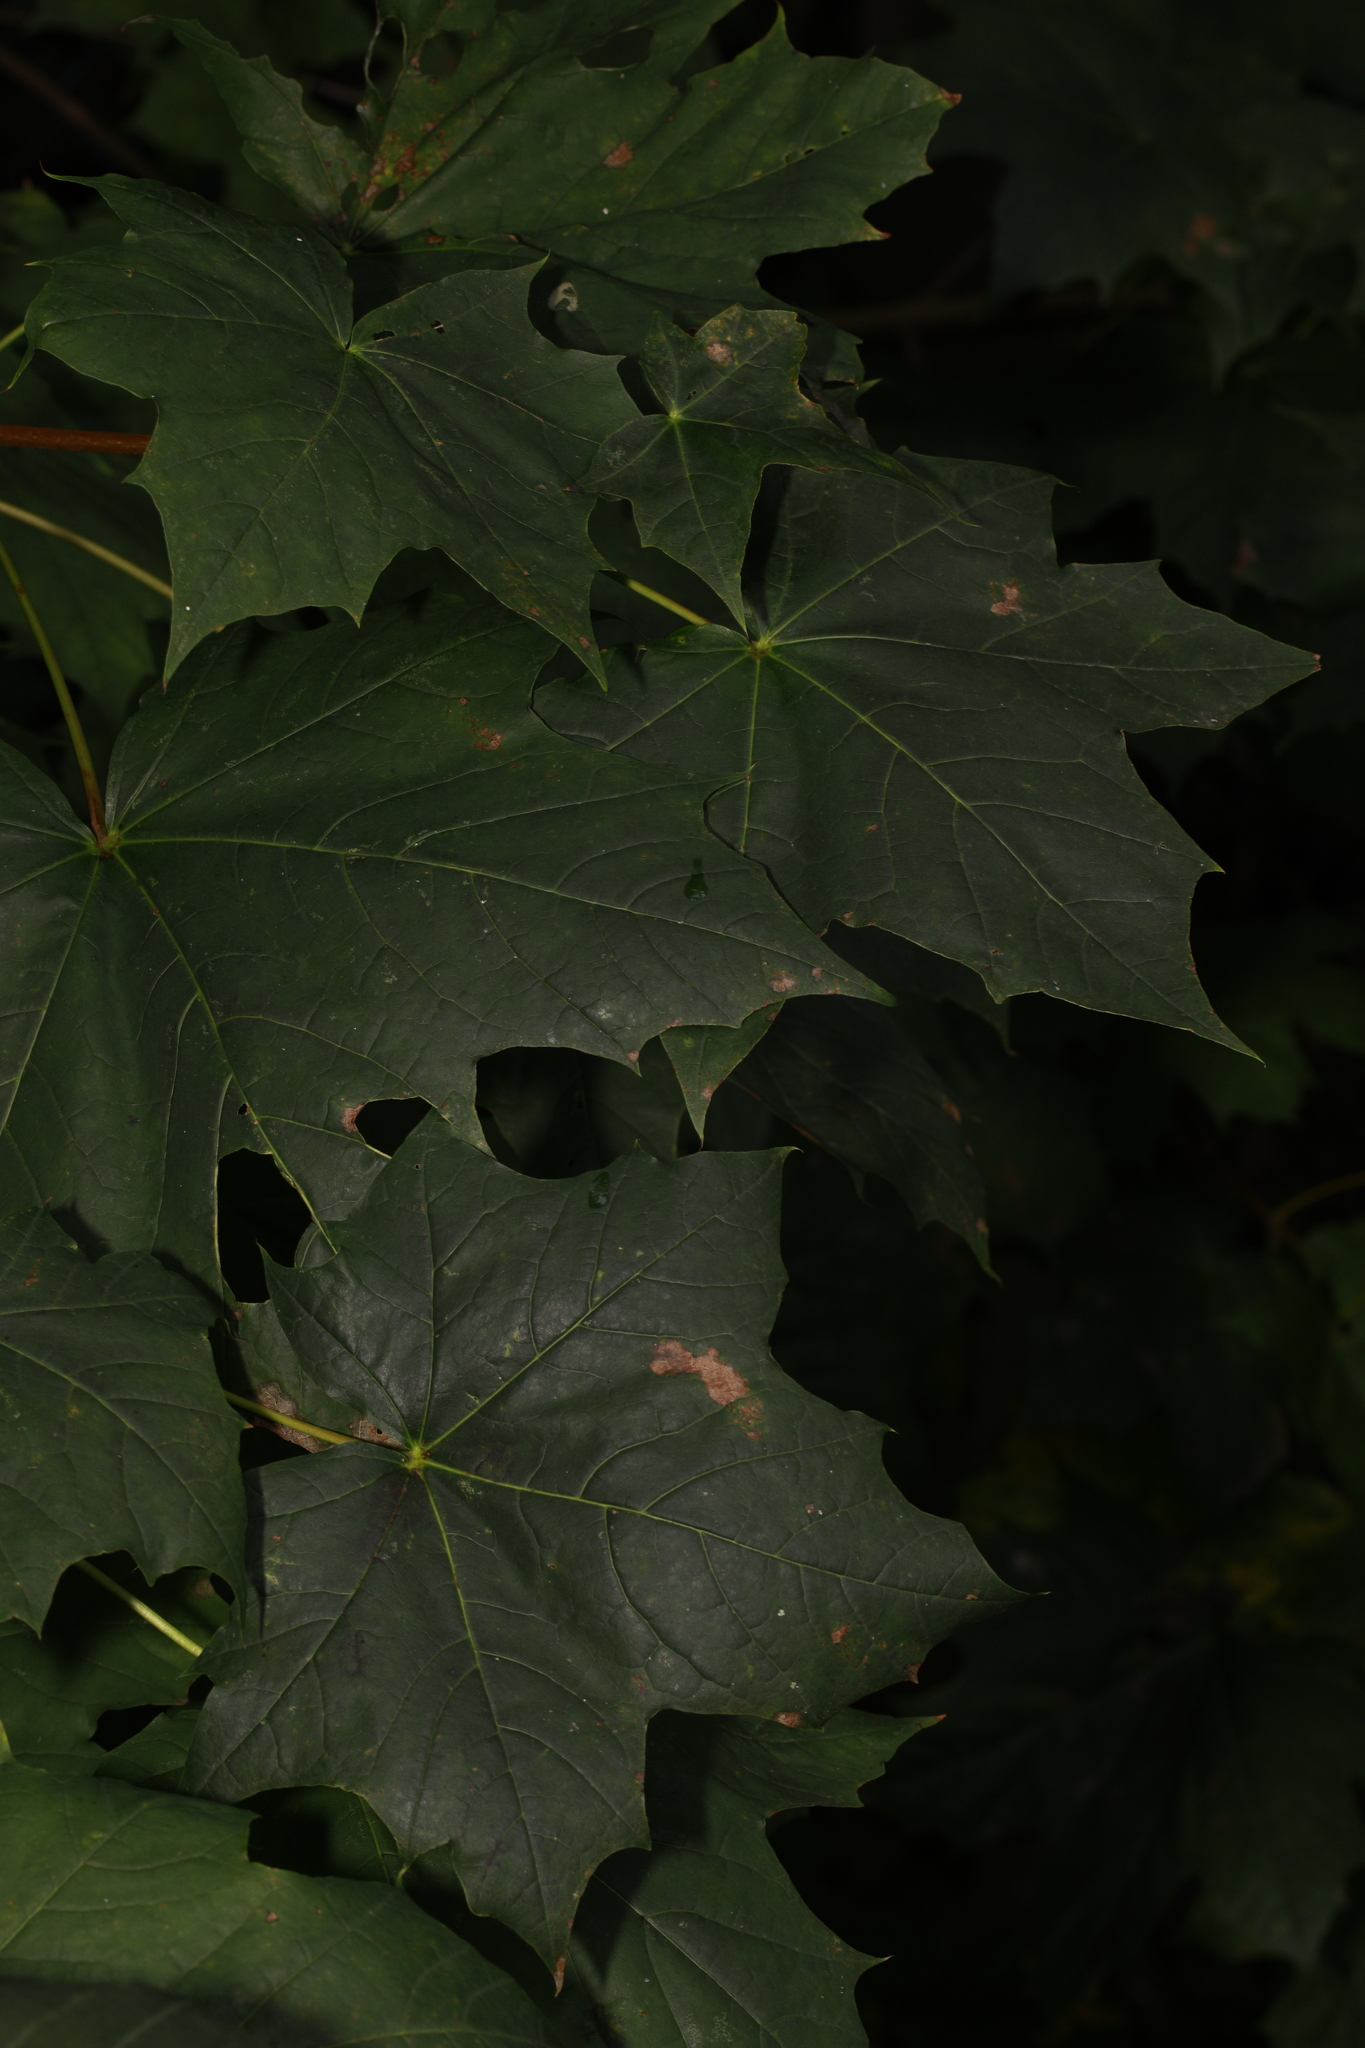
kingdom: Plantae
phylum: Tracheophyta
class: Magnoliopsida
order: Sapindales
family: Sapindaceae
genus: Acer
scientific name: Acer platanoides
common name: Norway maple
